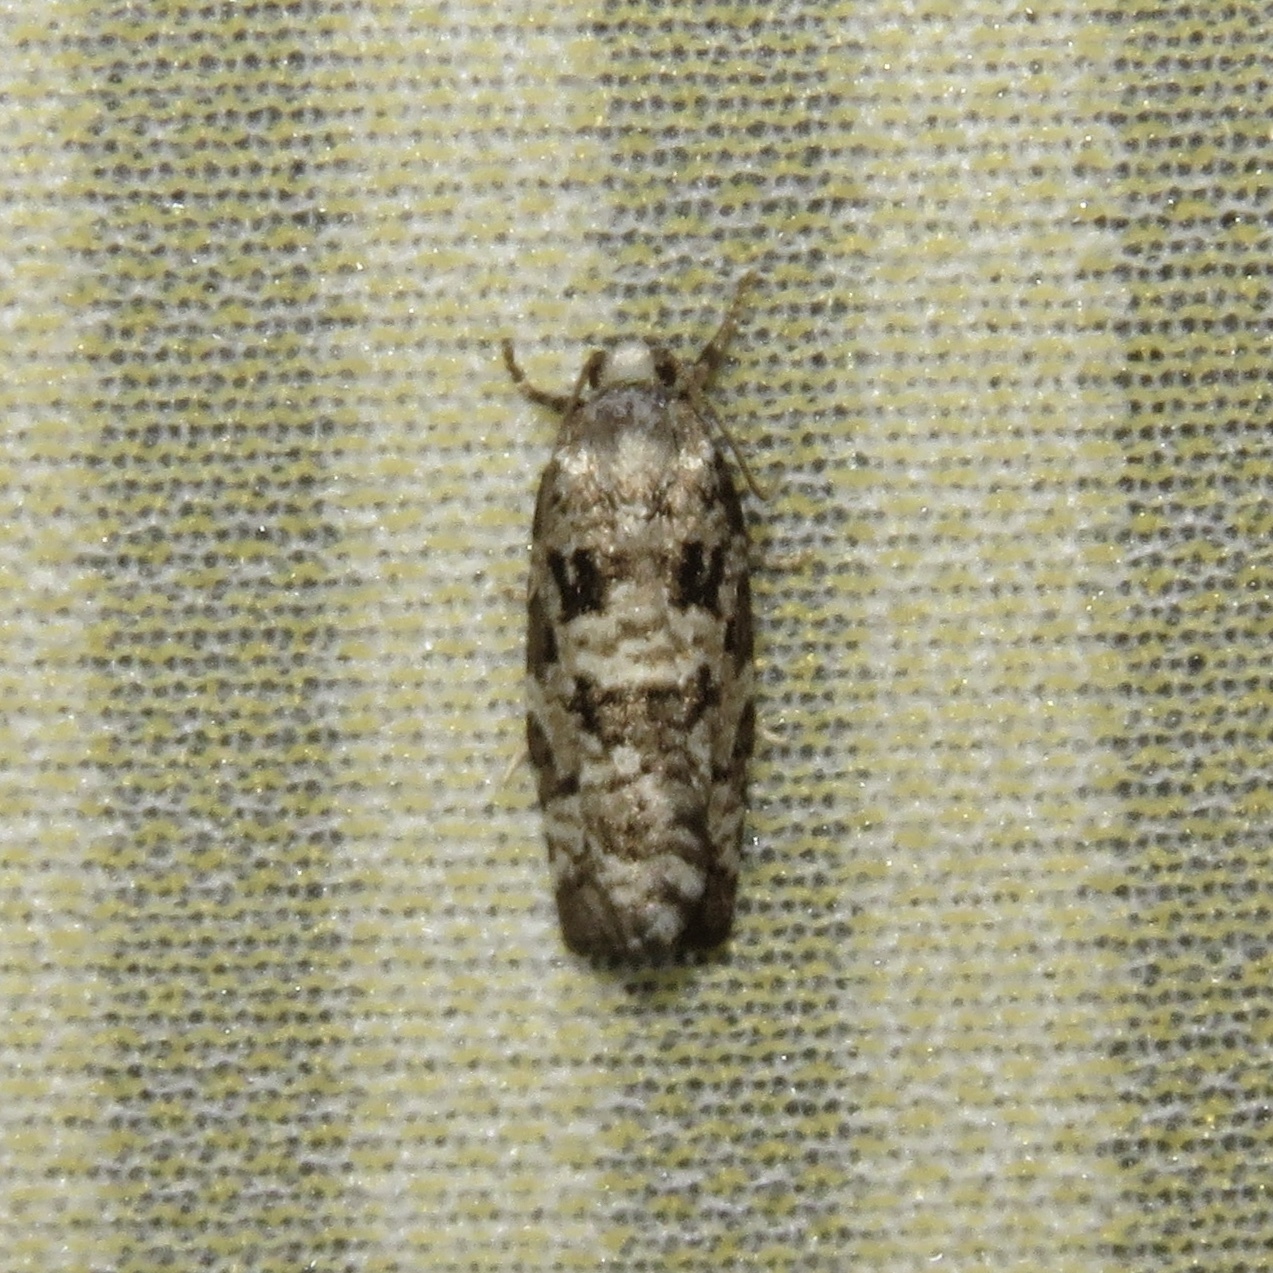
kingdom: Animalia
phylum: Arthropoda
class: Insecta
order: Lepidoptera
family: Tortricidae
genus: Archips
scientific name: Archips packardiana
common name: Spring spruce needle moth
